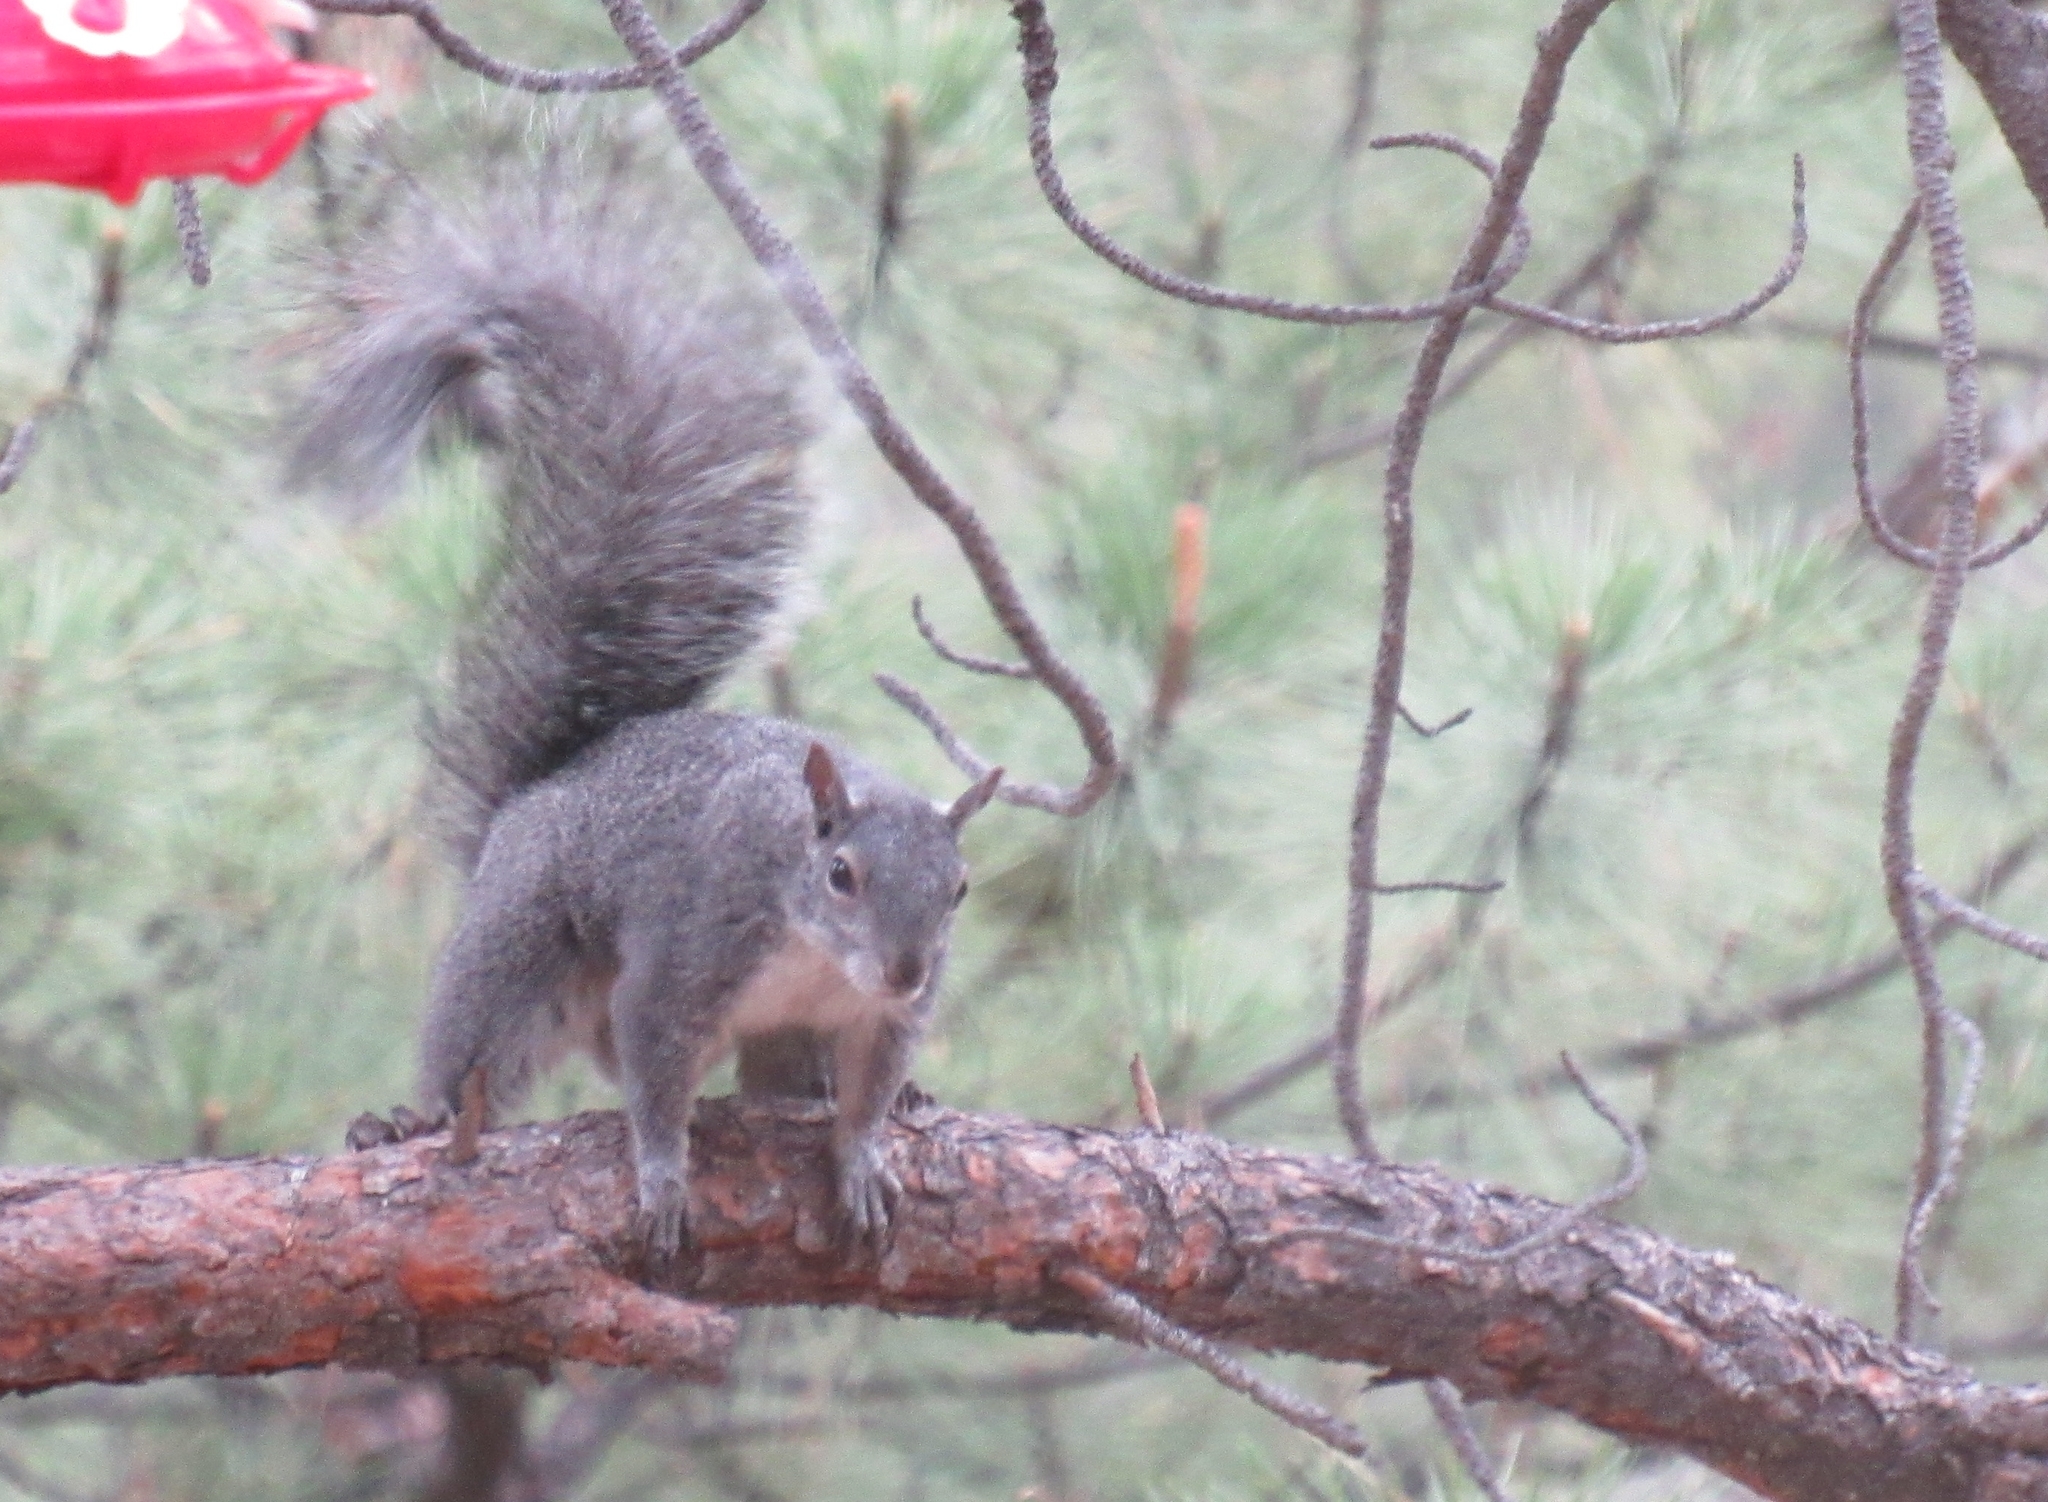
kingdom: Animalia
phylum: Chordata
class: Mammalia
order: Rodentia
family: Sciuridae
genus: Sciurus
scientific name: Sciurus griseus
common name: Western gray squirrel
